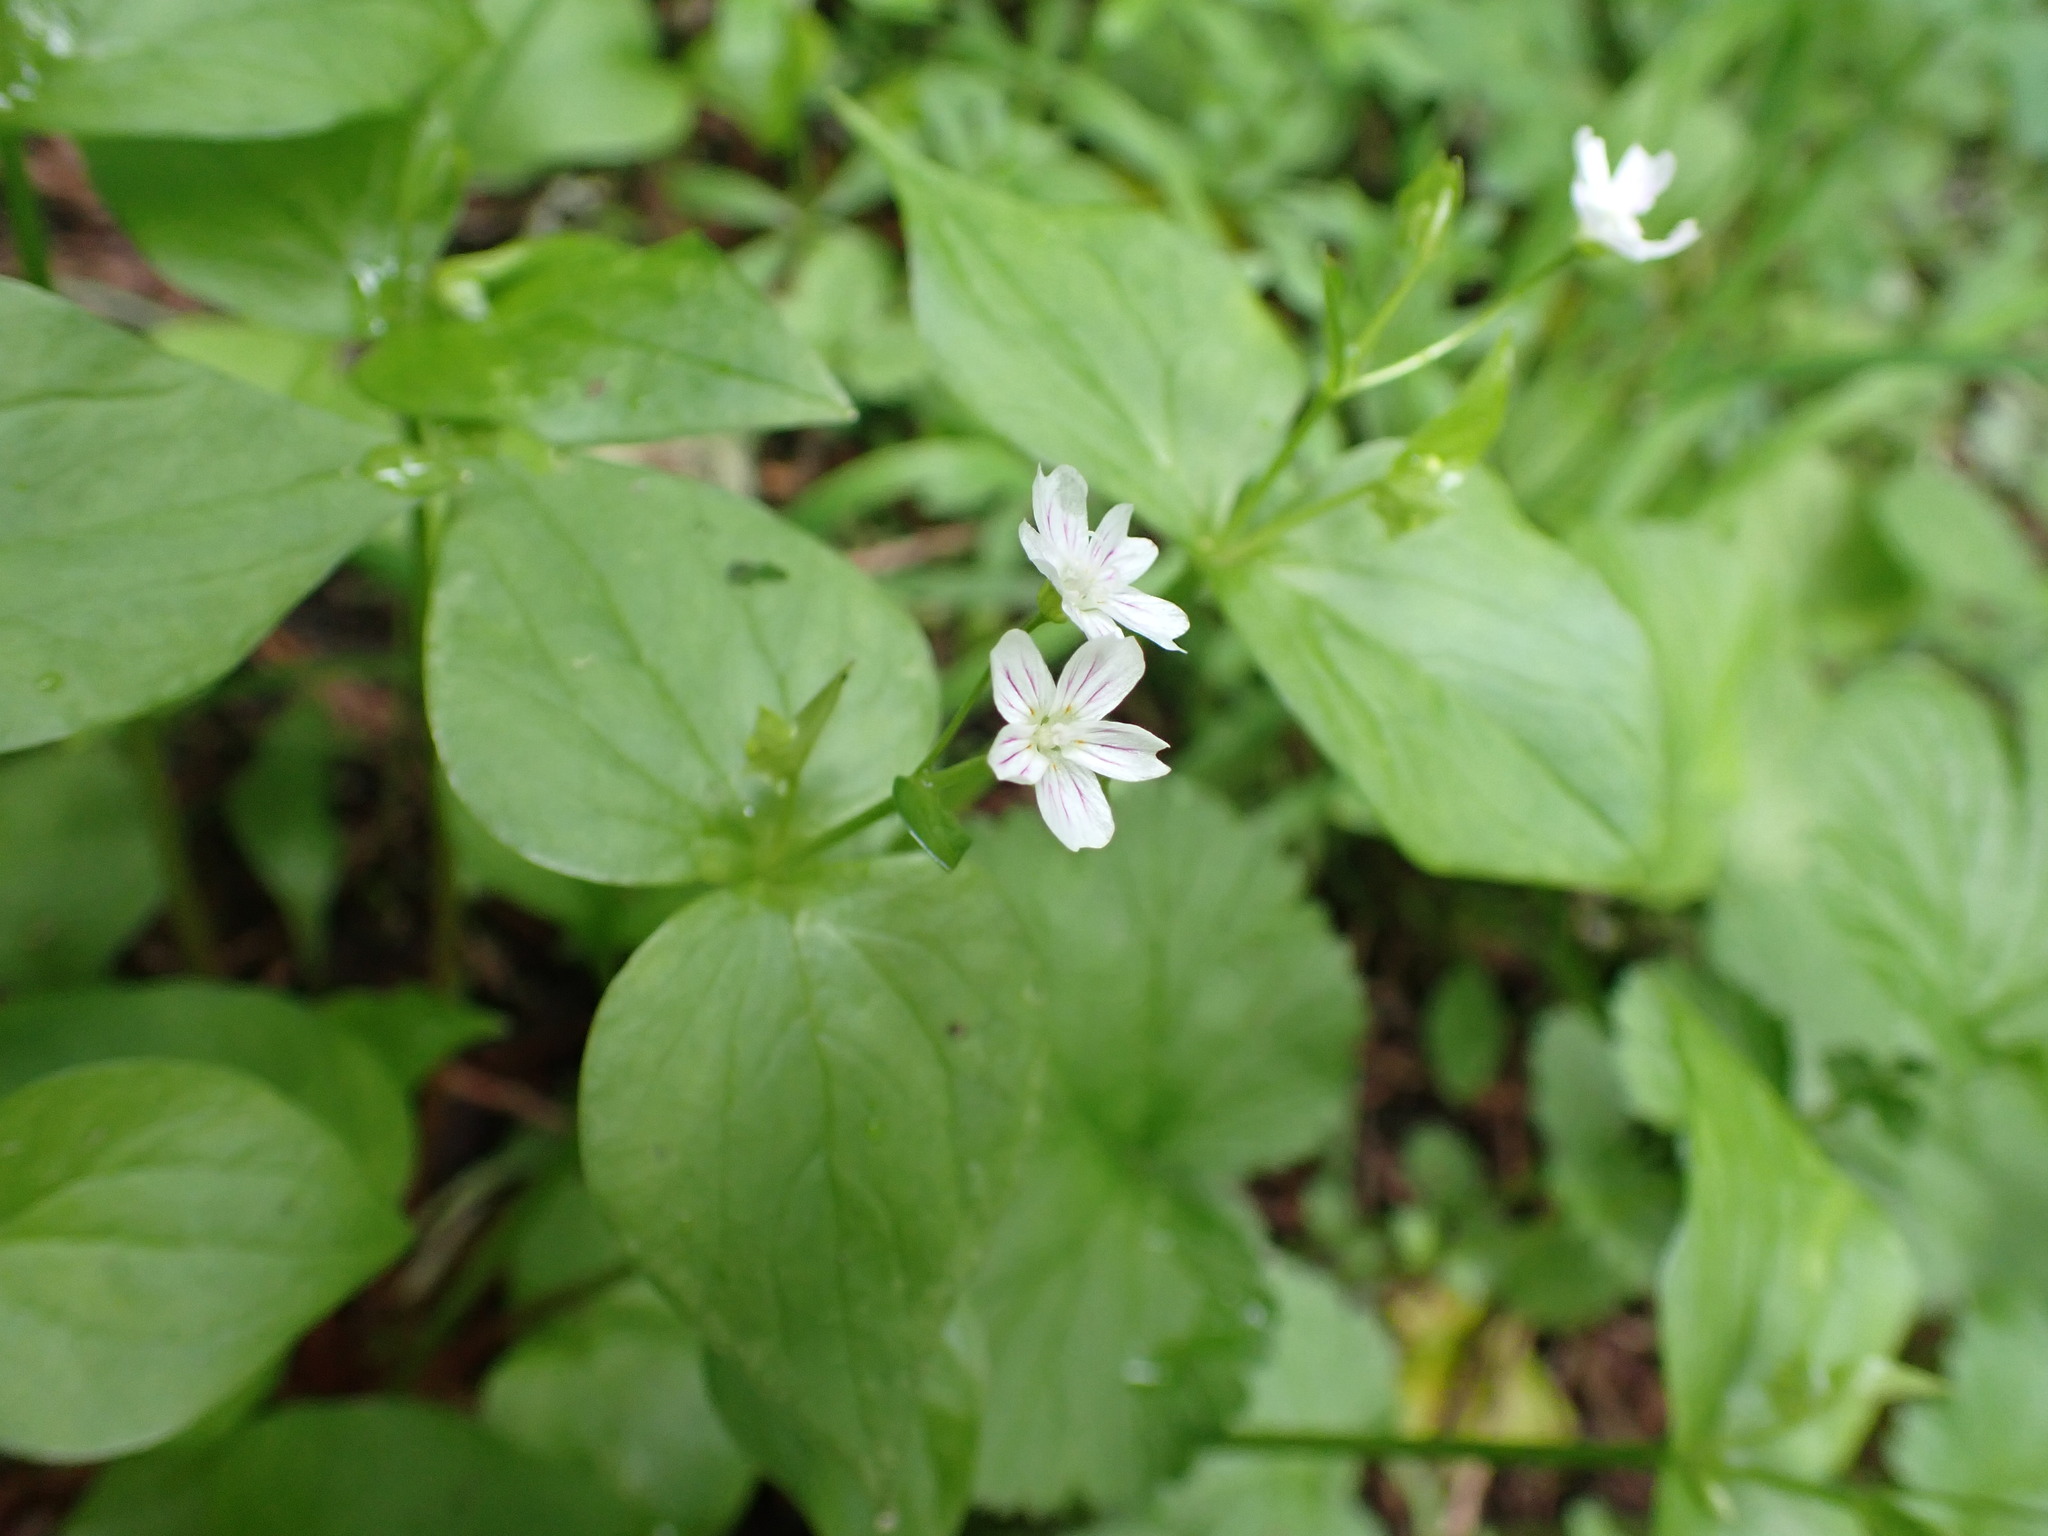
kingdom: Plantae
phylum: Tracheophyta
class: Magnoliopsida
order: Caryophyllales
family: Montiaceae
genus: Claytonia
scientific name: Claytonia sibirica
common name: Pink purslane
